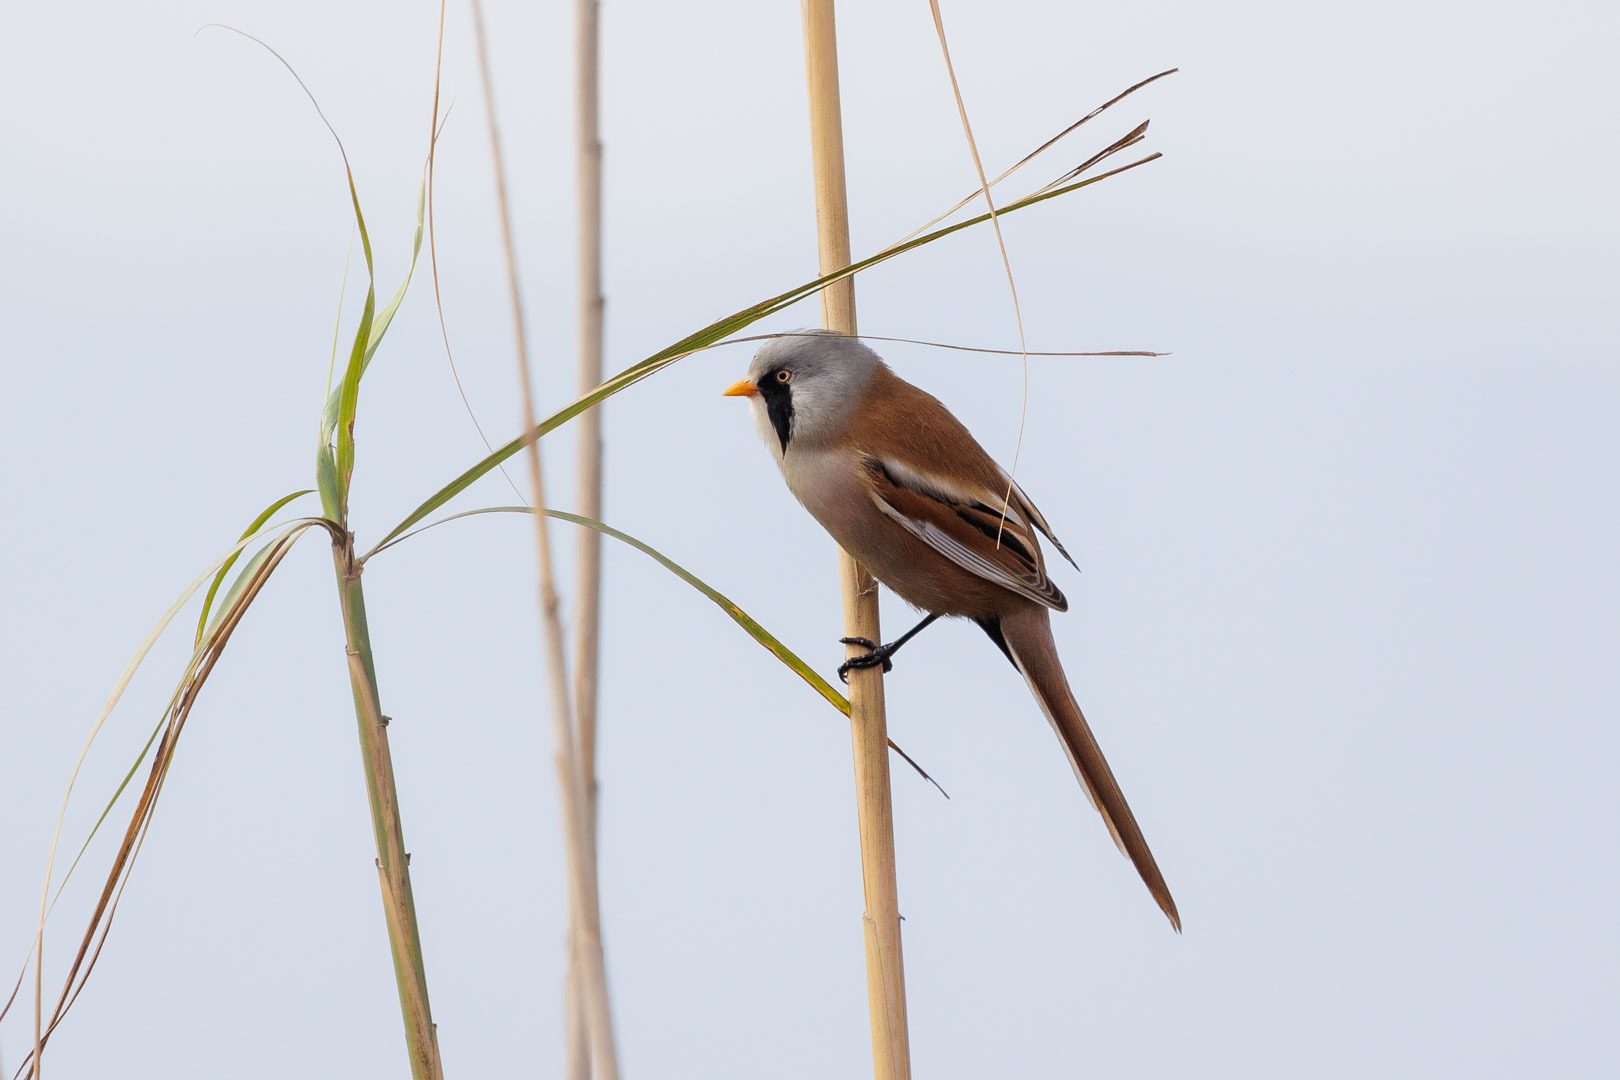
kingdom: Animalia
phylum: Chordata
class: Aves
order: Passeriformes
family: Panuridae
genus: Panurus
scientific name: Panurus biarmicus
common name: Bearded reedling
